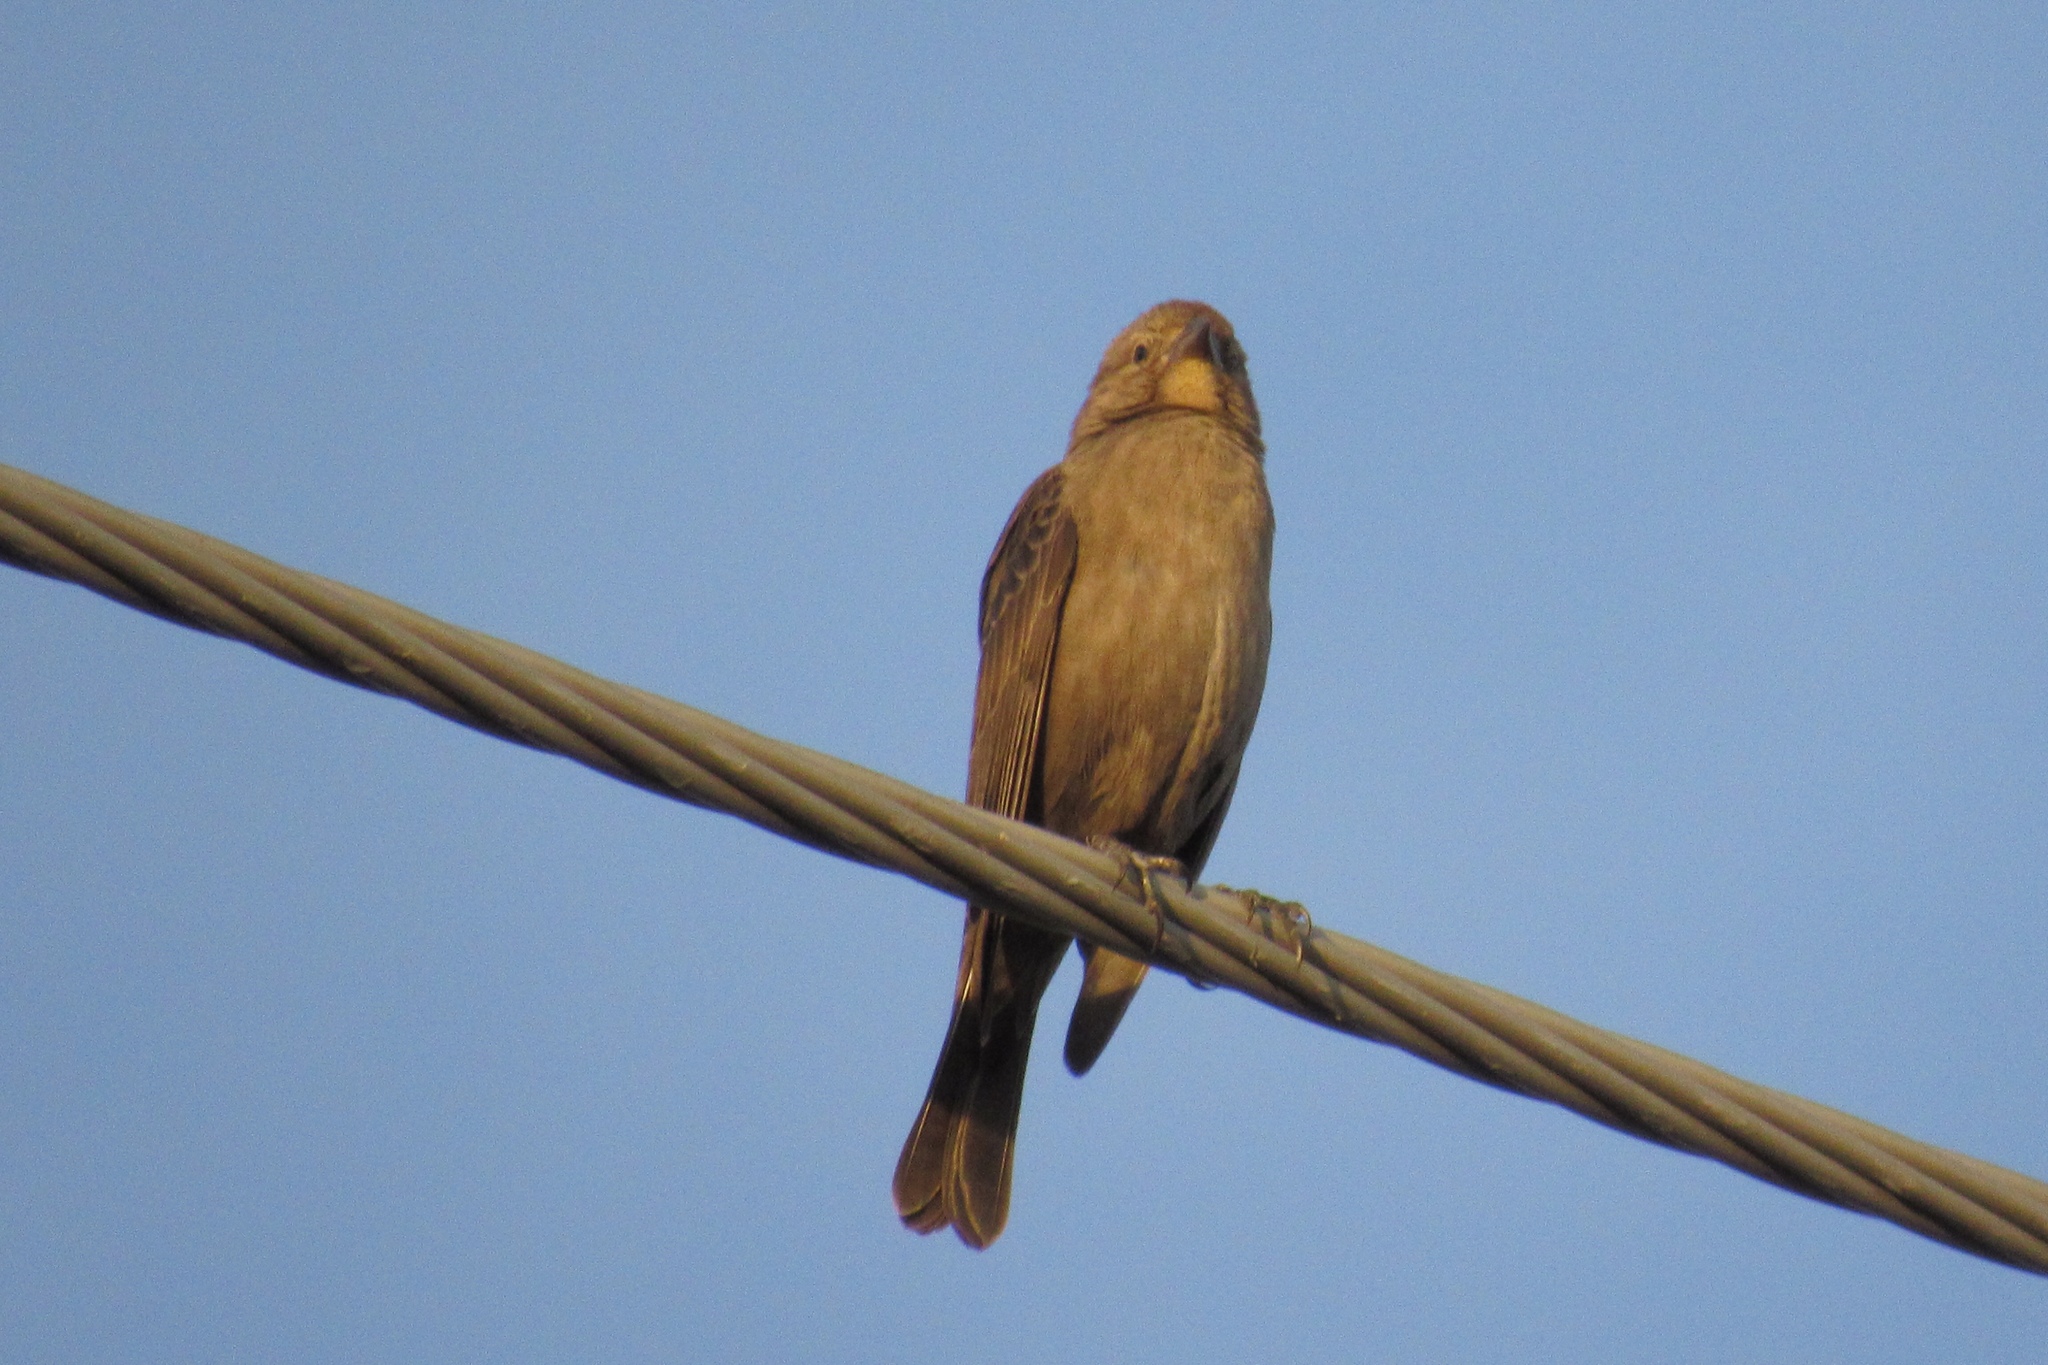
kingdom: Animalia
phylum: Chordata
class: Aves
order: Passeriformes
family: Icteridae
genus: Molothrus
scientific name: Molothrus ater
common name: Brown-headed cowbird
